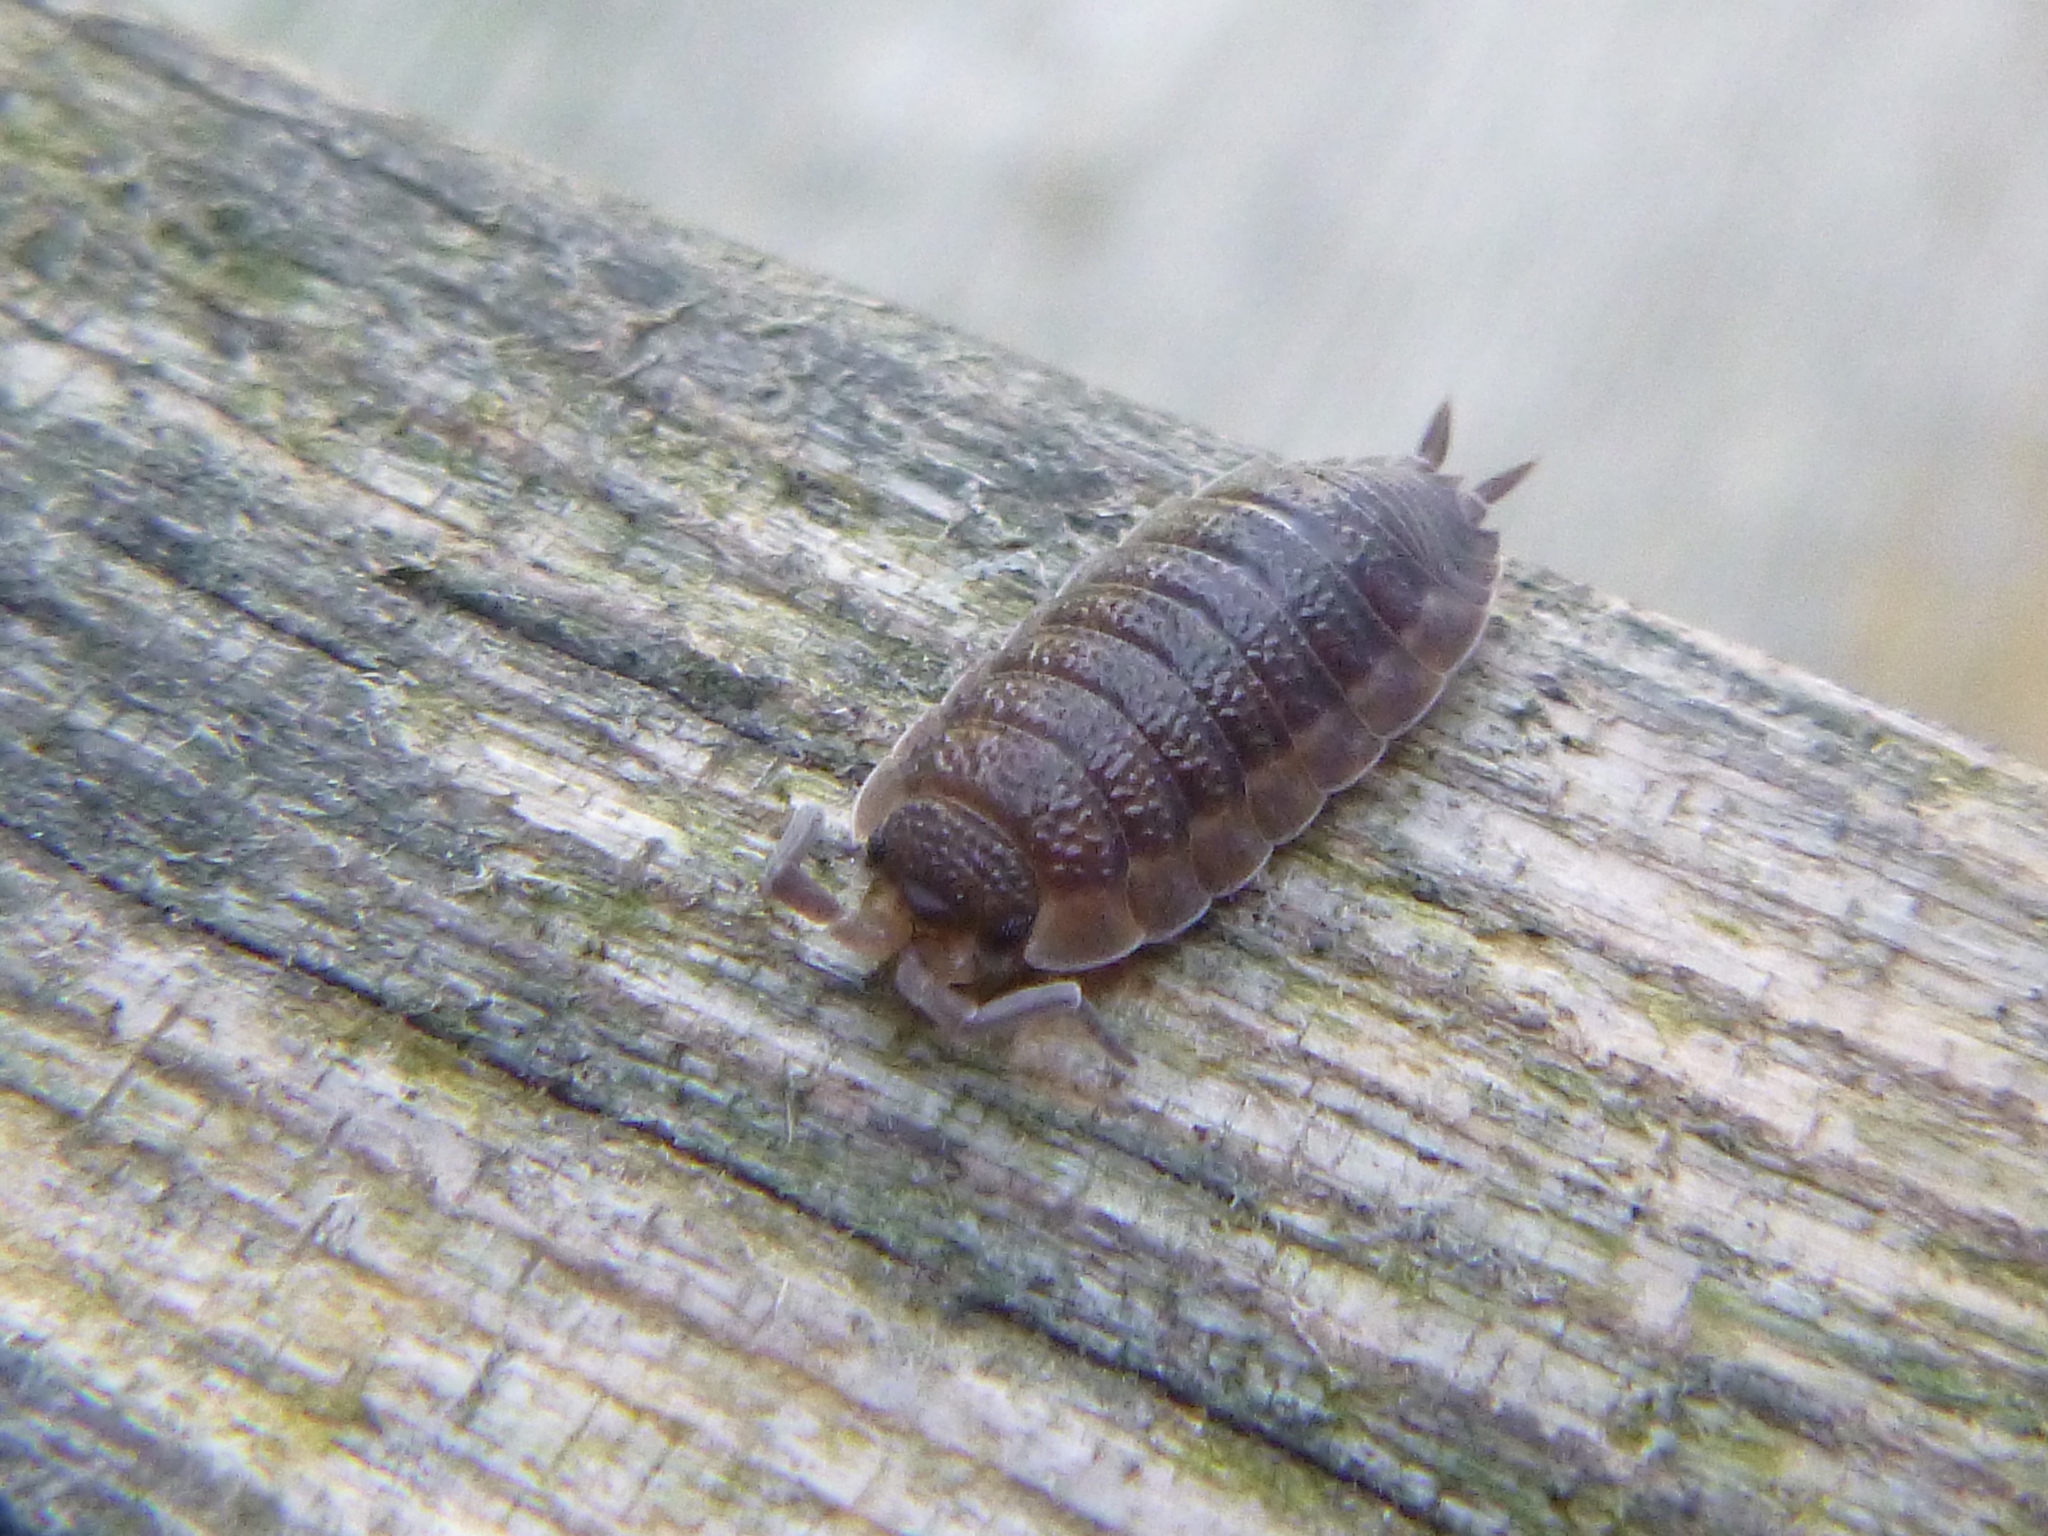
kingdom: Animalia
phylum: Arthropoda
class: Malacostraca
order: Isopoda
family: Porcellionidae
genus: Porcellio
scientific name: Porcellio scaber
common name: Common rough woodlouse
